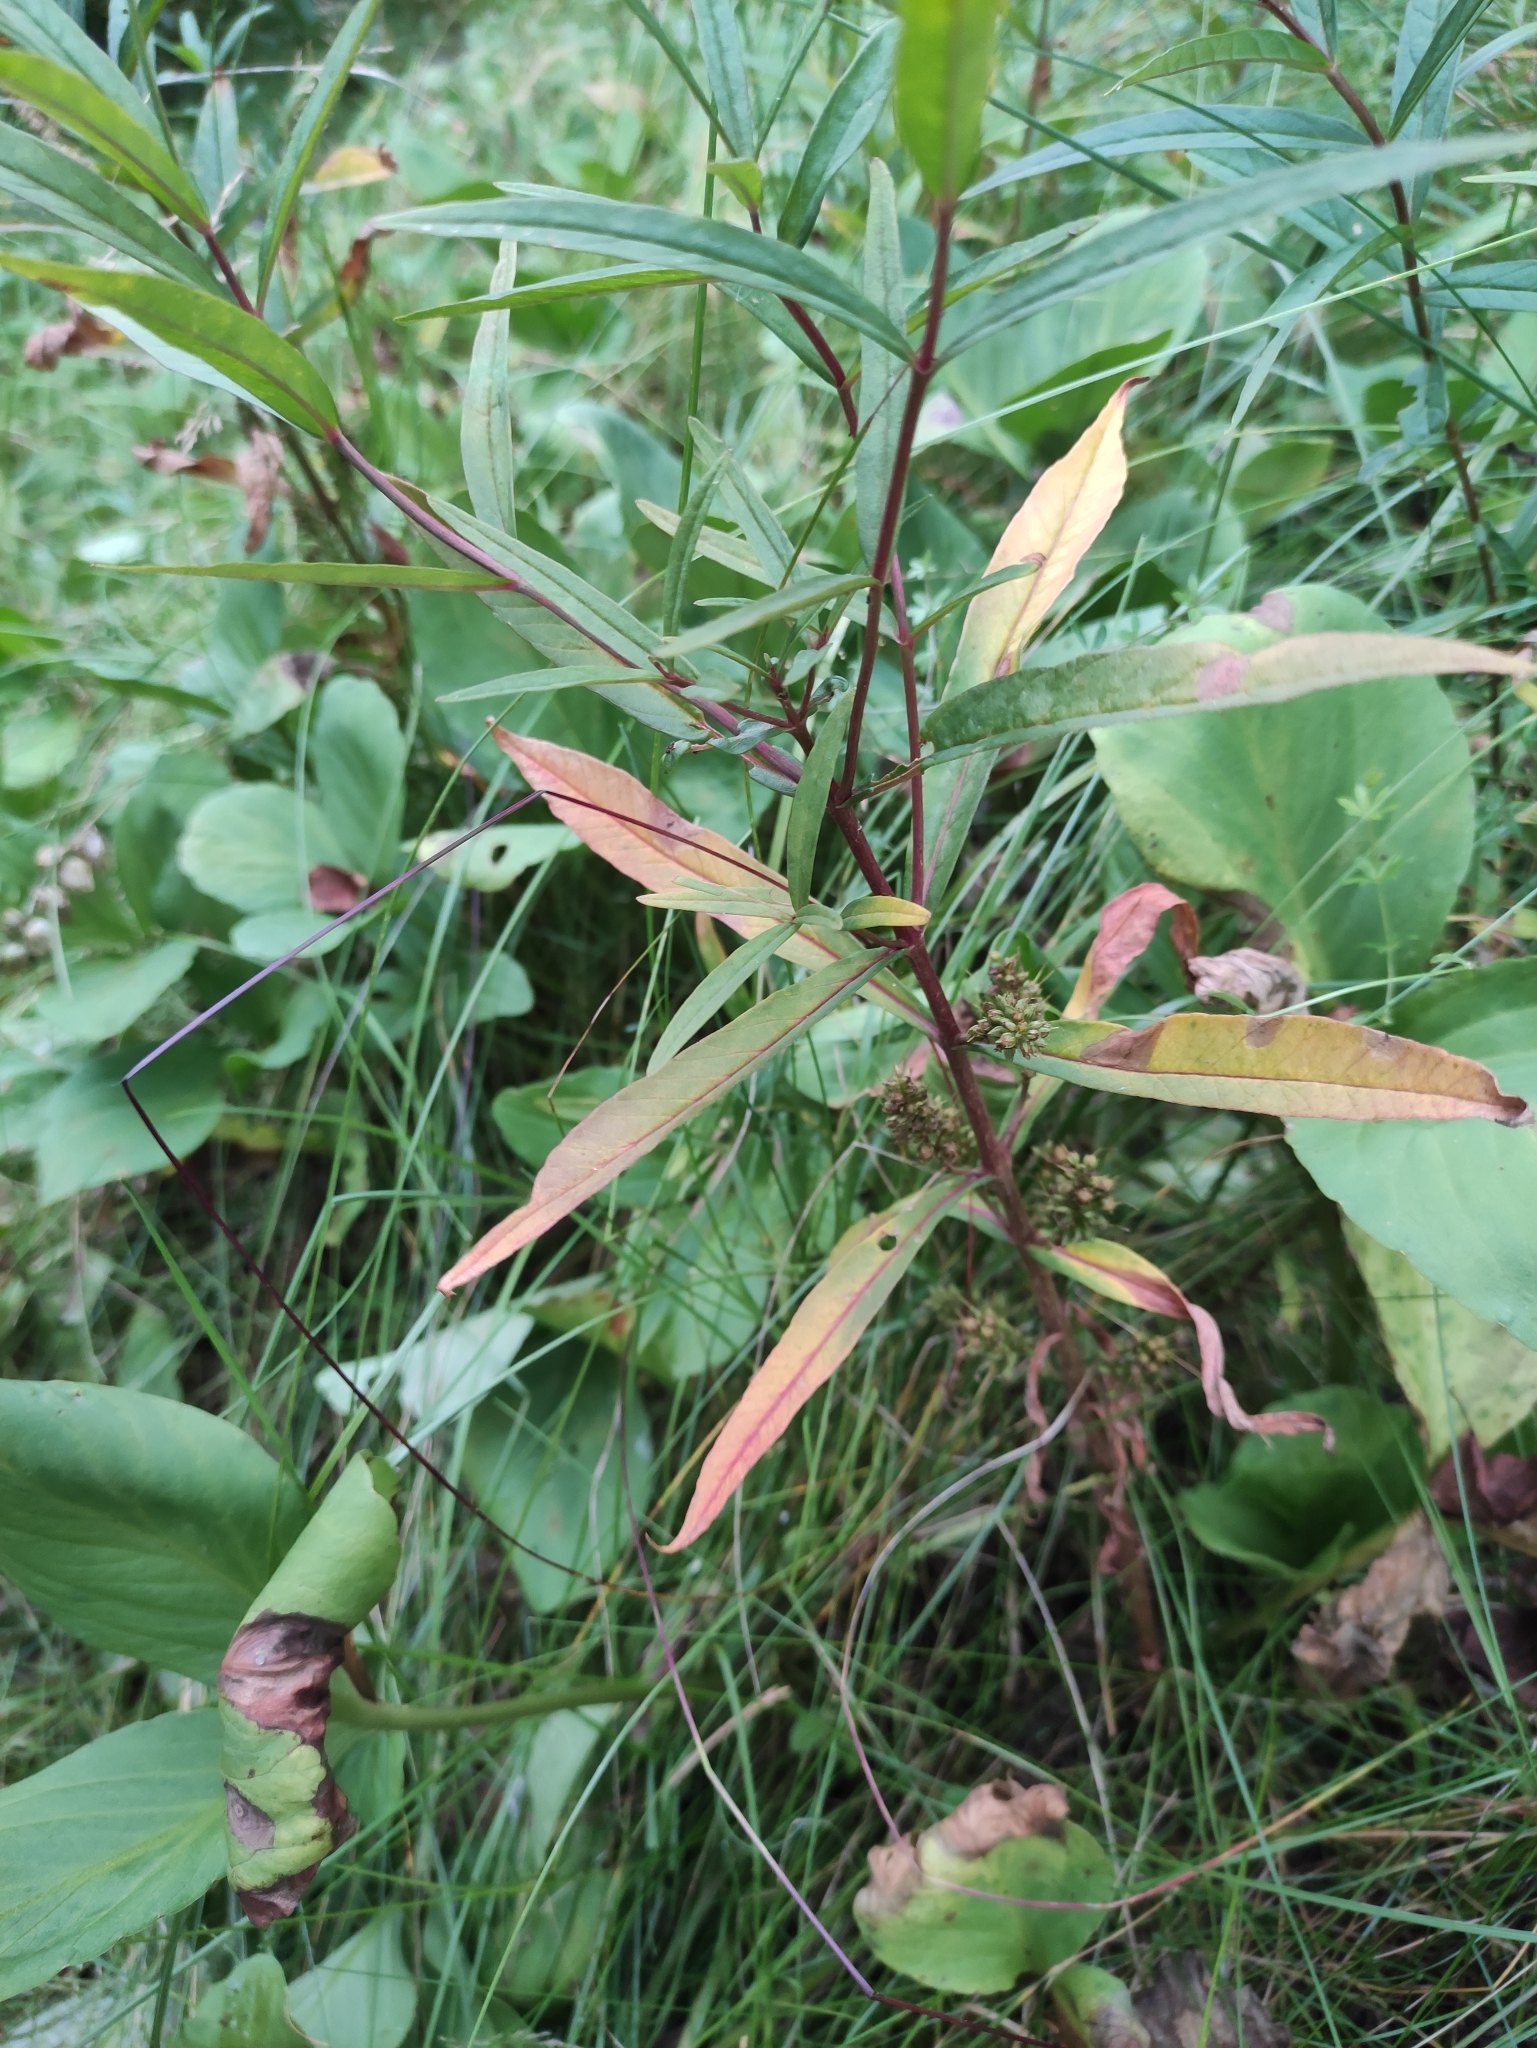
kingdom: Plantae
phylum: Tracheophyta
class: Magnoliopsida
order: Ericales
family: Primulaceae
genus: Lysimachia
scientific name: Lysimachia thyrsiflora
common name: Tufted loosestrife
